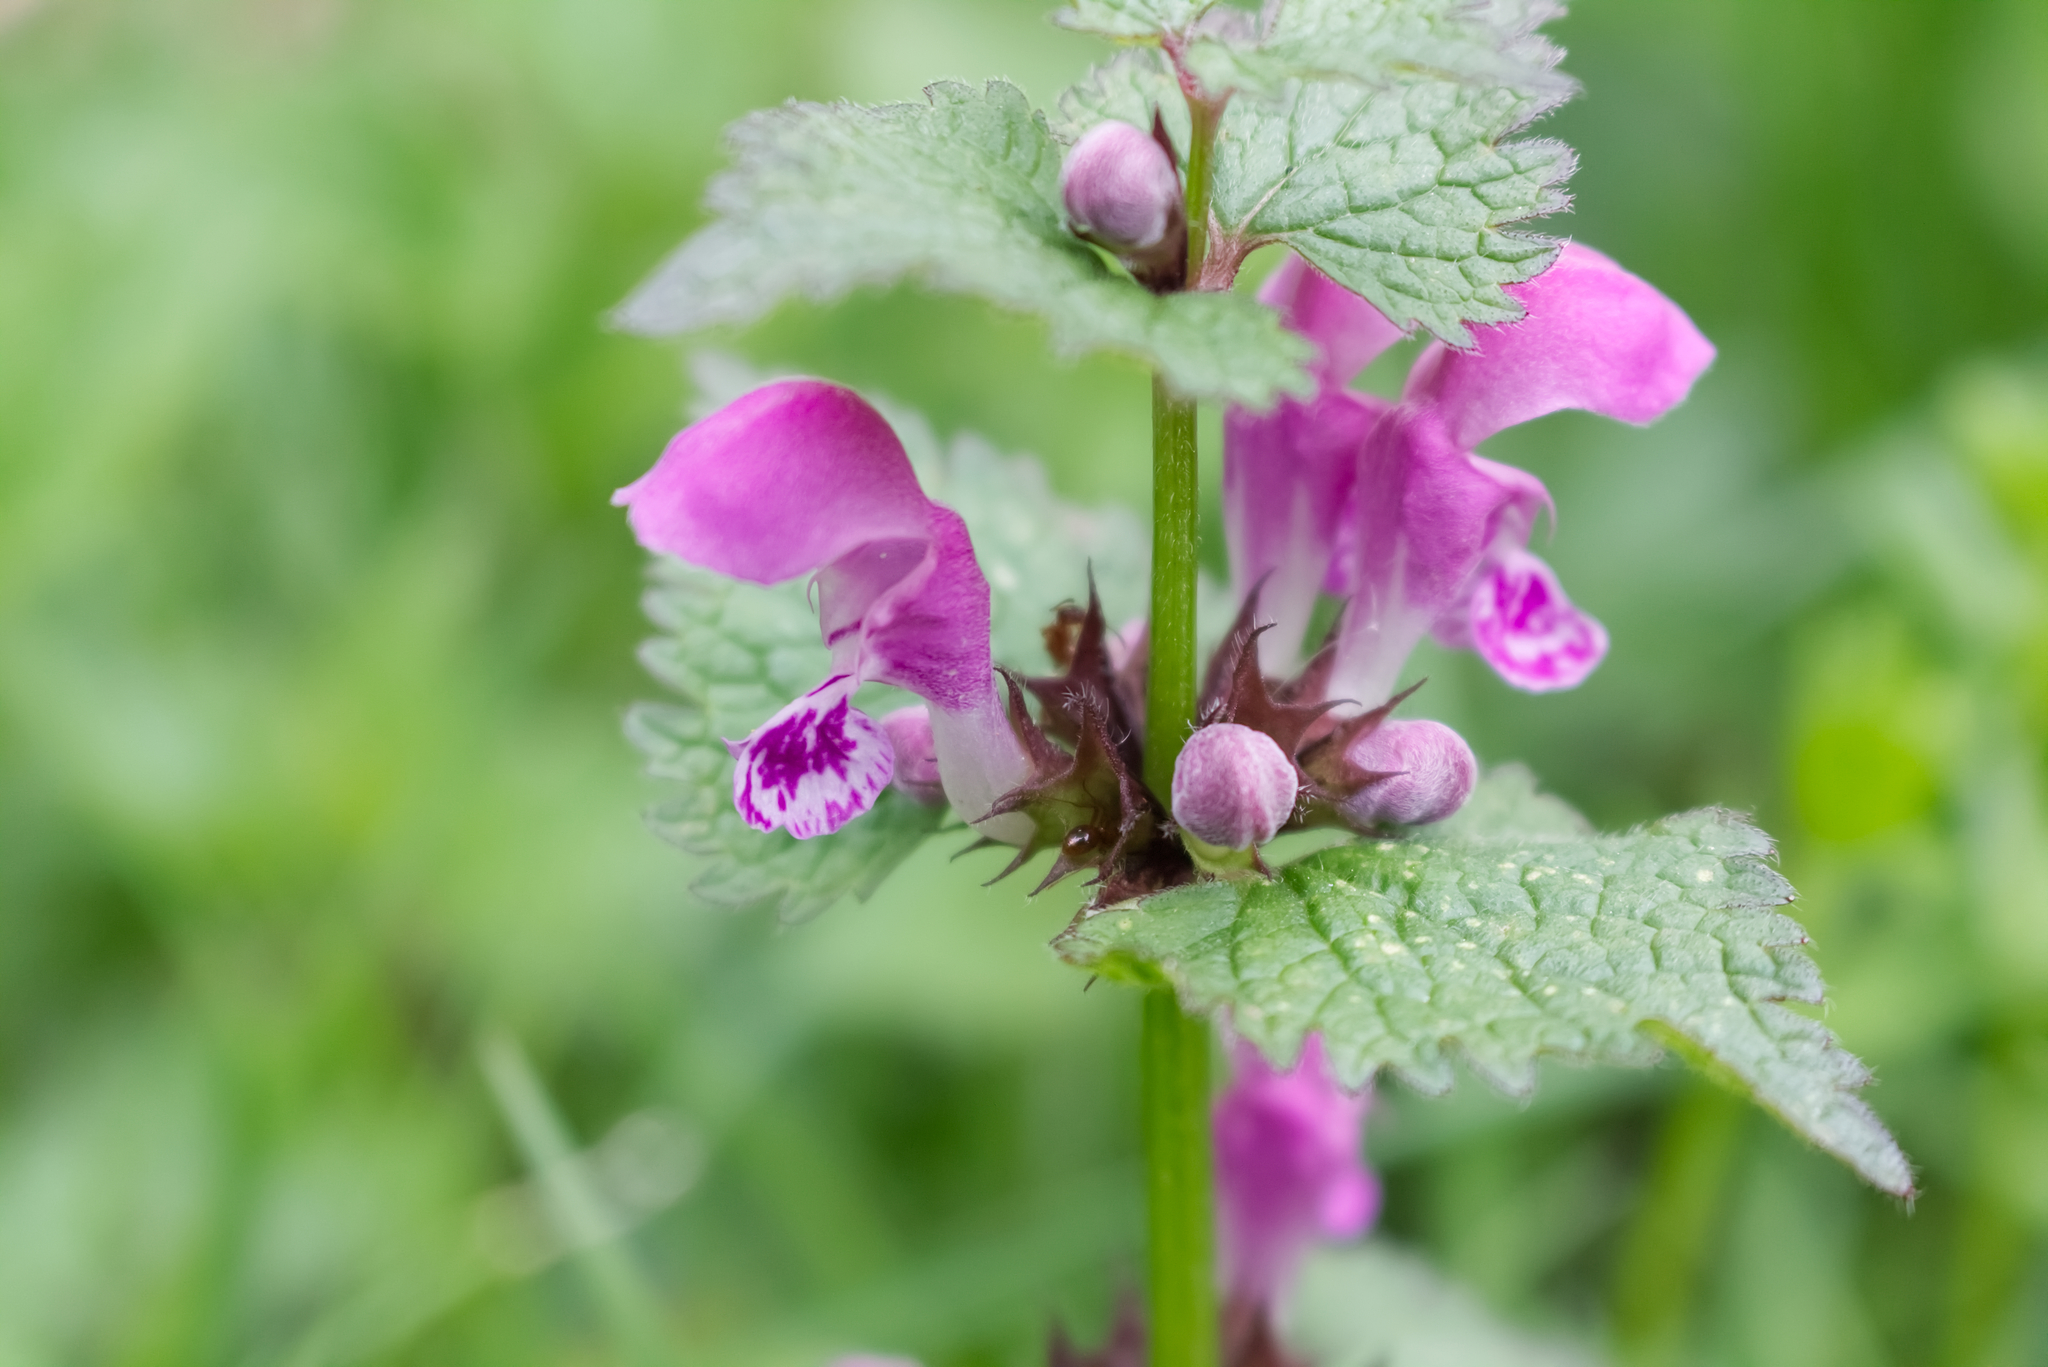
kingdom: Plantae
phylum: Tracheophyta
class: Magnoliopsida
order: Lamiales
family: Lamiaceae
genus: Lamium
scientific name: Lamium maculatum
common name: Spotted dead-nettle
